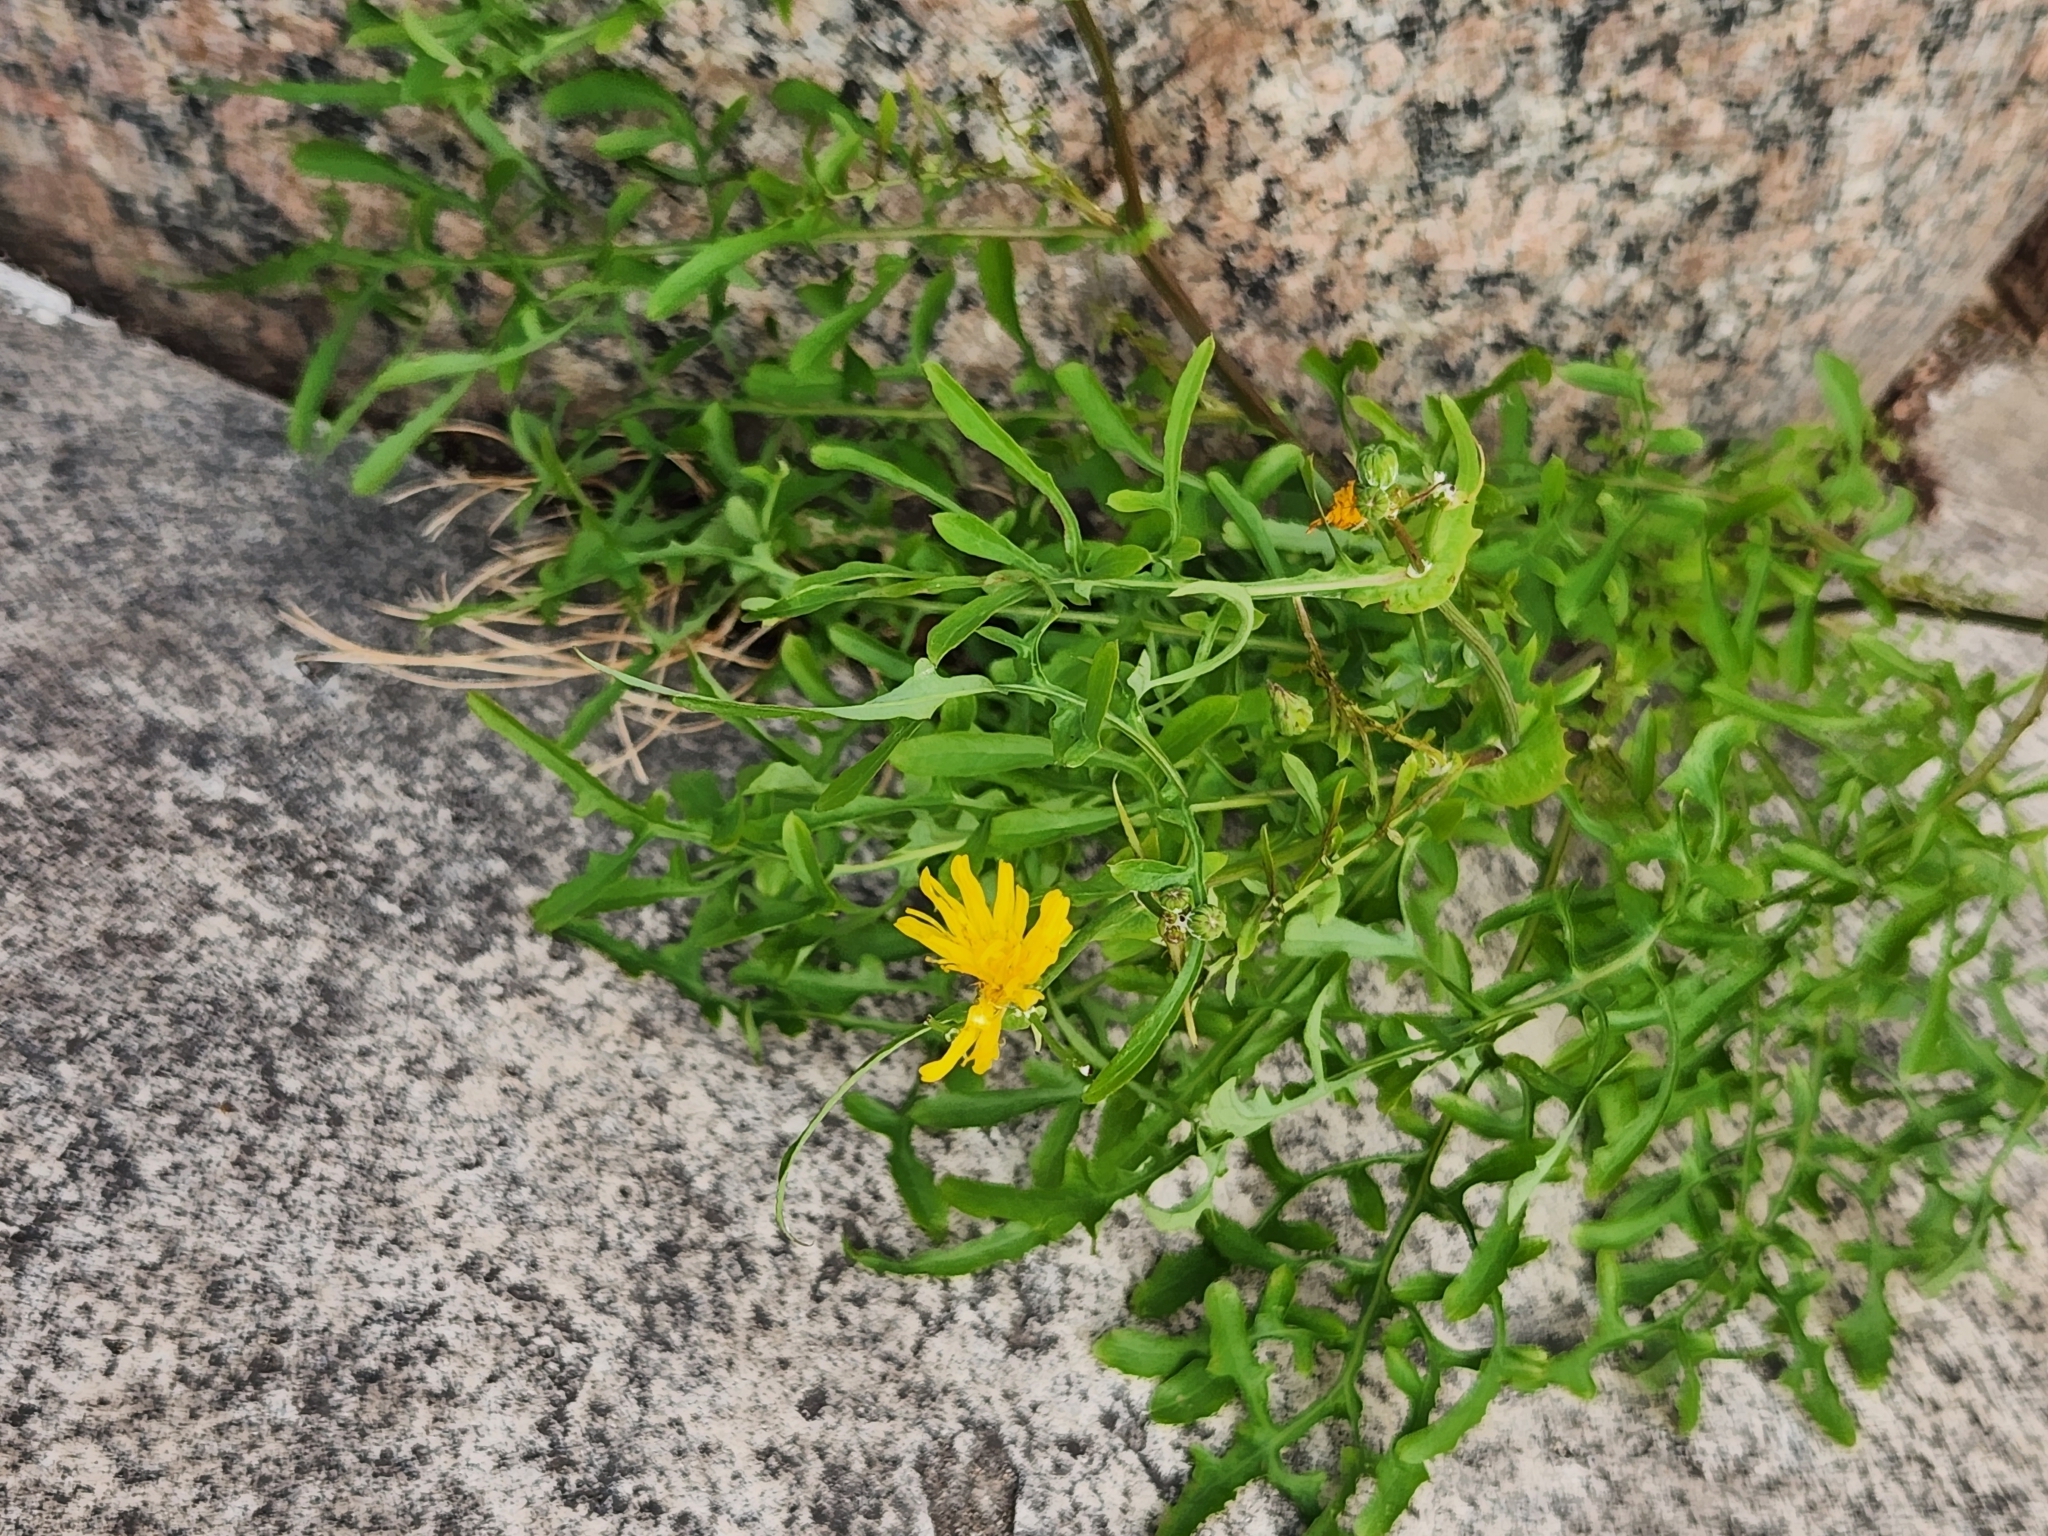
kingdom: Plantae
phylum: Tracheophyta
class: Magnoliopsida
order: Asterales
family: Asteraceae
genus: Sonchus
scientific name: Sonchus tenerrimus
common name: Clammy sowthistle
